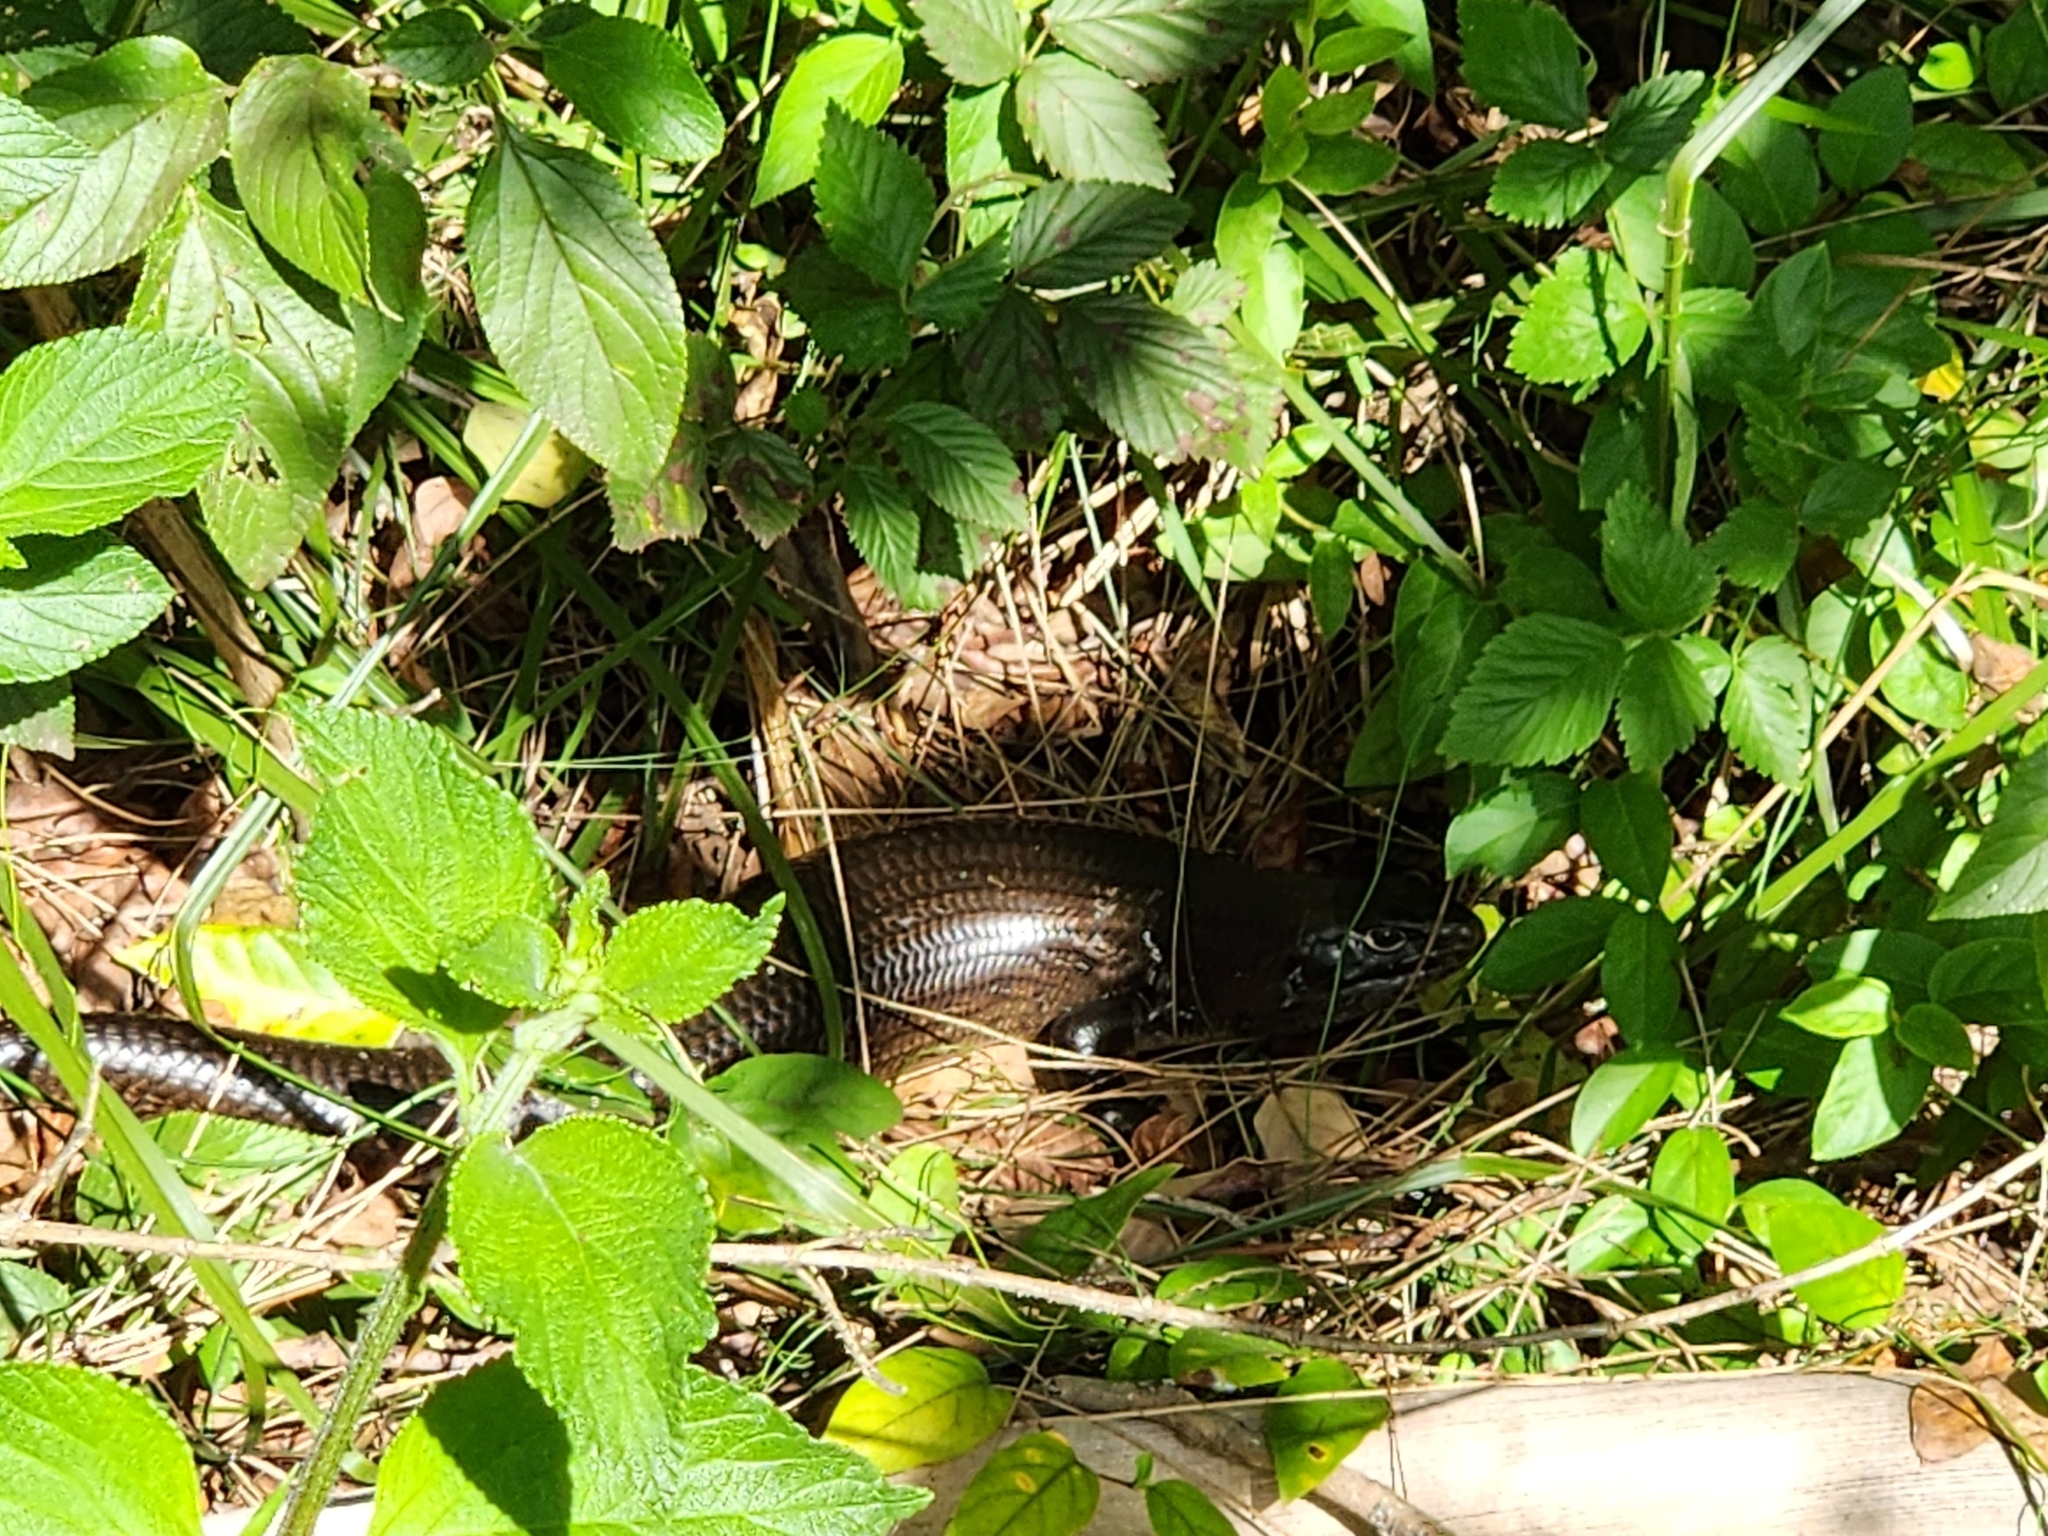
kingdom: Animalia
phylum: Chordata
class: Squamata
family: Scincidae
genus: Bellatorias
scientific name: Bellatorias major
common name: Land mullet
